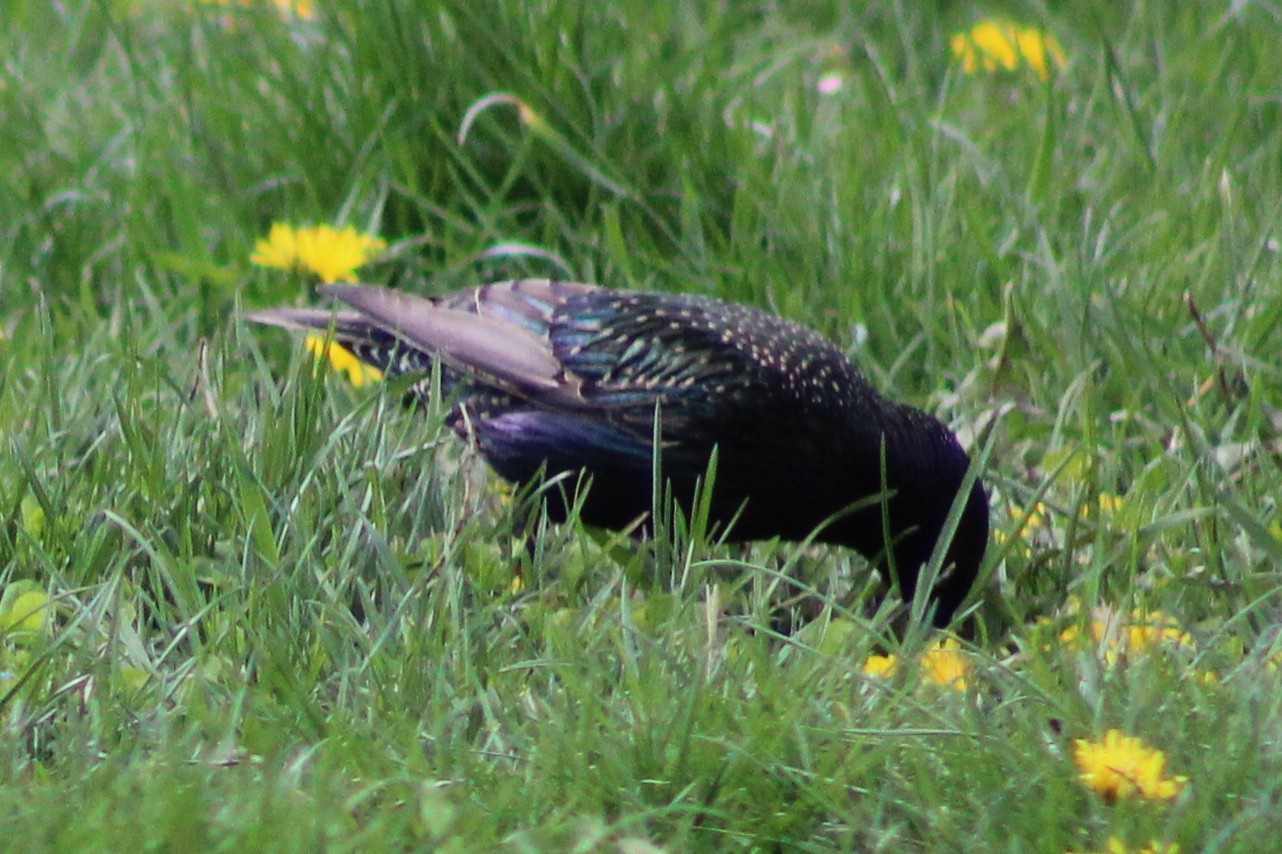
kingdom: Animalia
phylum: Chordata
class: Aves
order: Passeriformes
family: Sturnidae
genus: Sturnus
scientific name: Sturnus vulgaris
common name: Common starling
